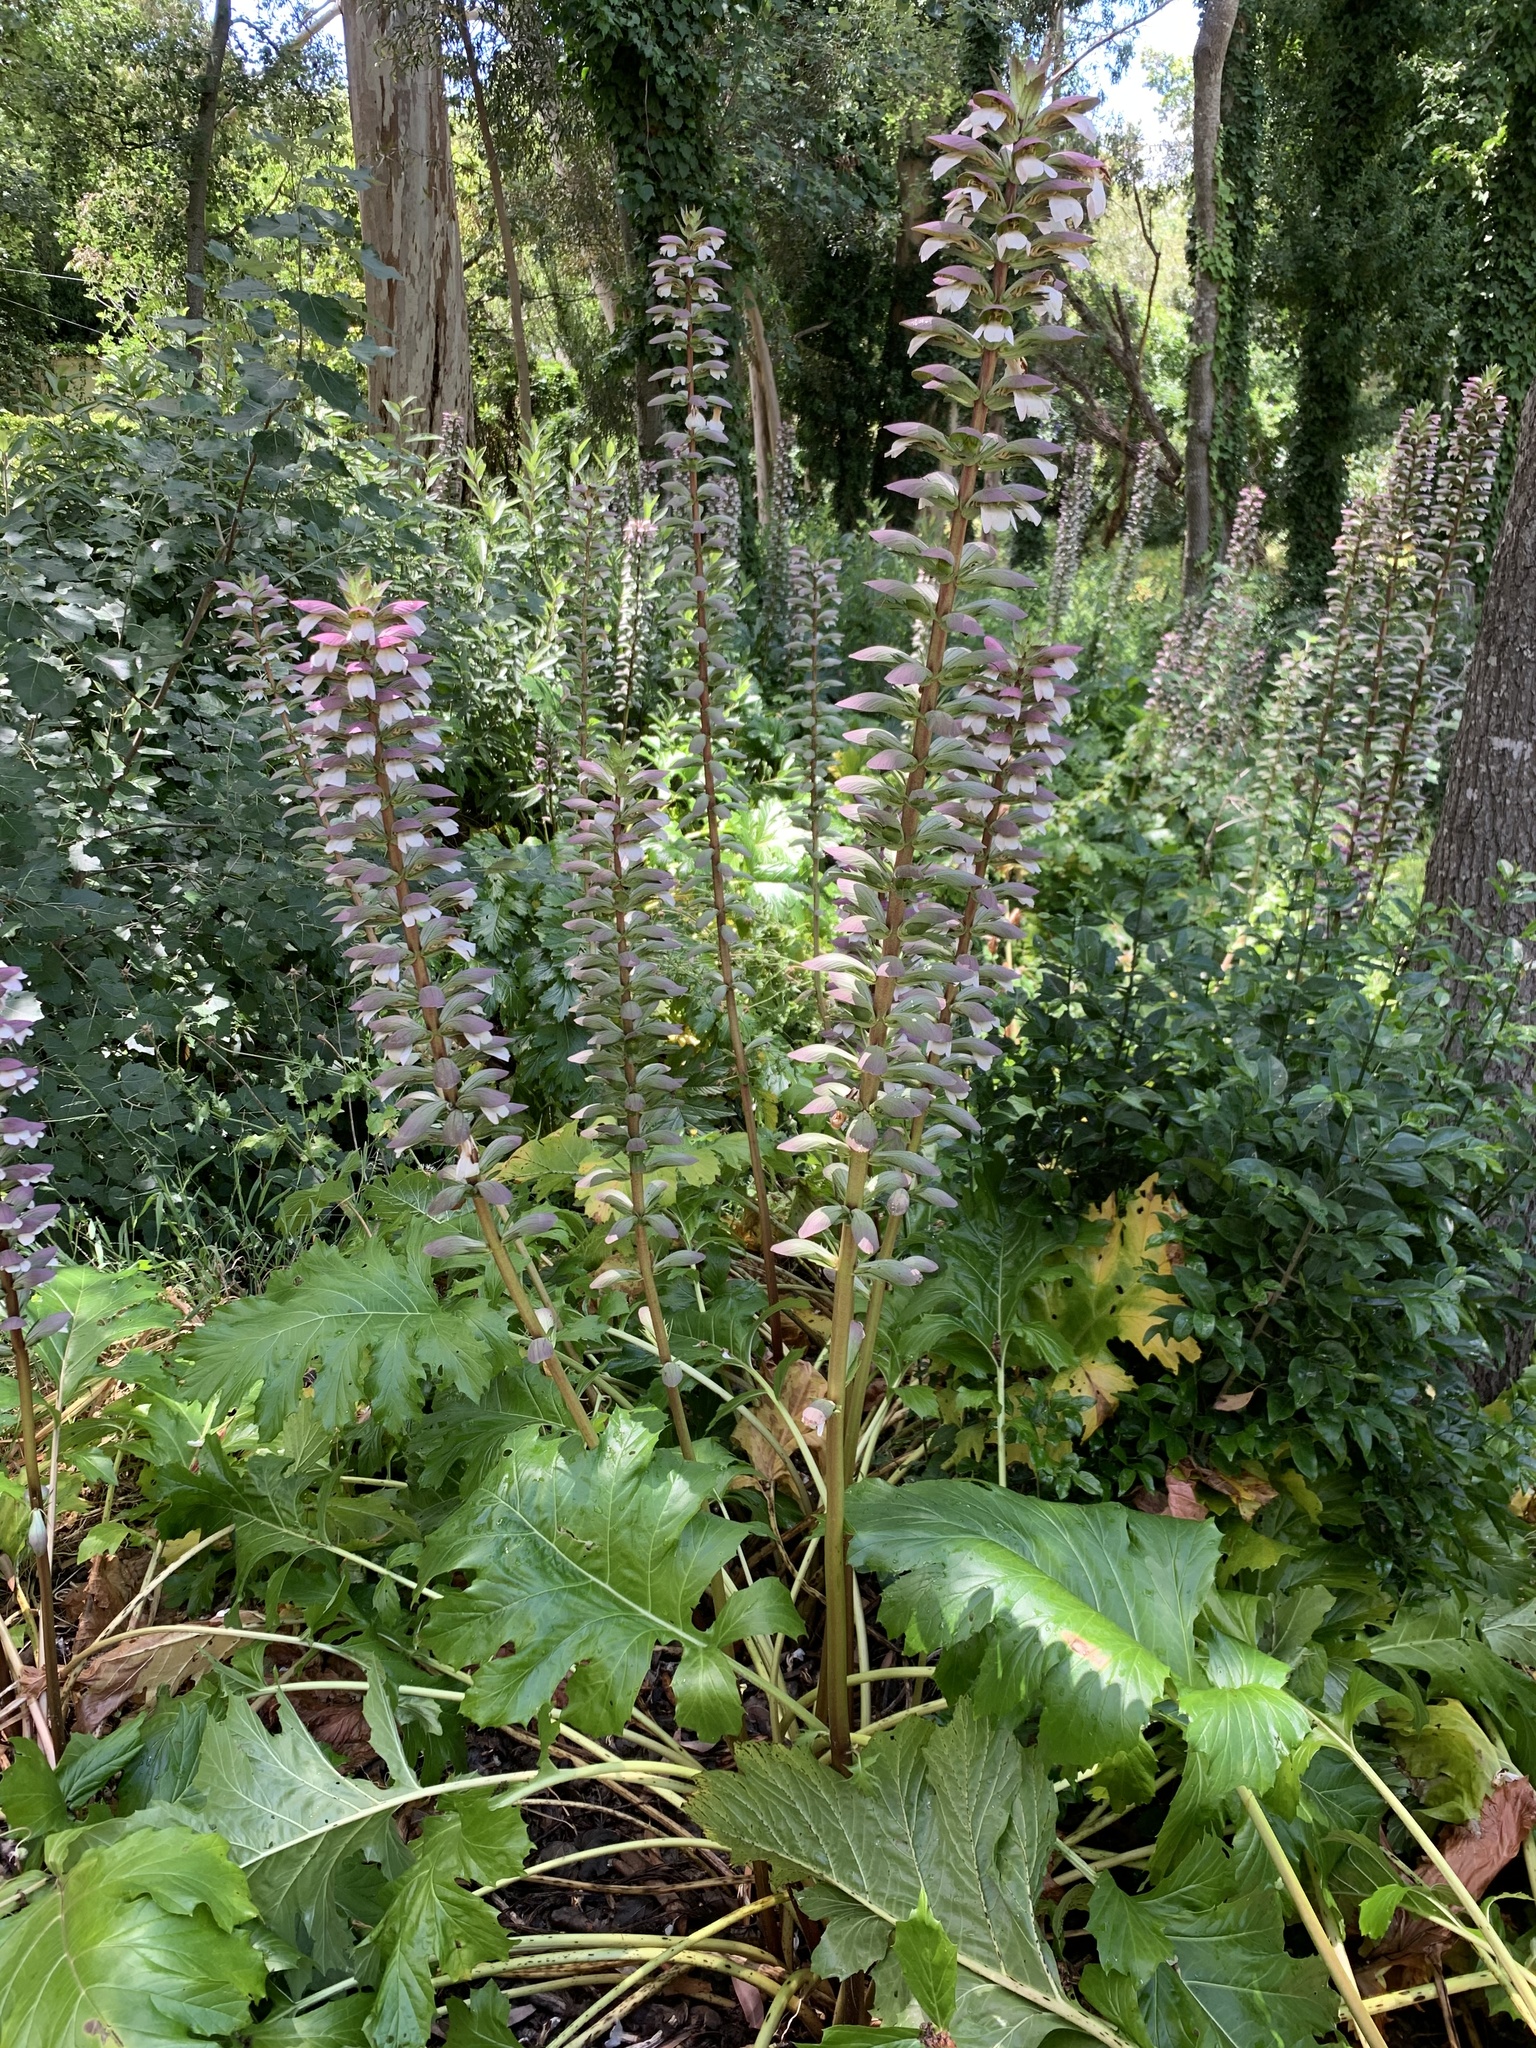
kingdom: Plantae
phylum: Tracheophyta
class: Magnoliopsida
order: Lamiales
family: Acanthaceae
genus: Acanthus
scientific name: Acanthus mollis
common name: Bear's-breech
